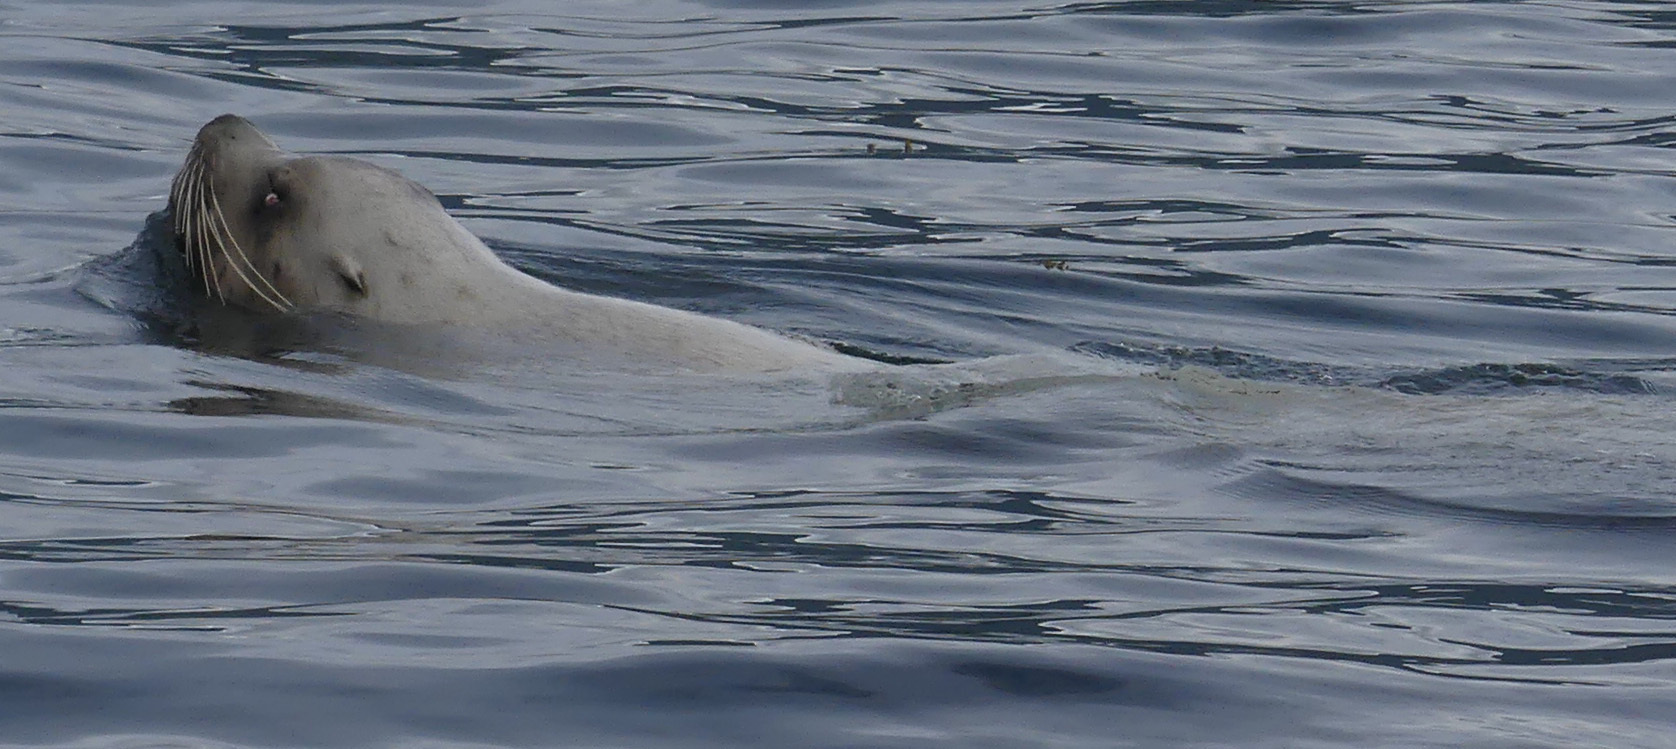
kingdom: Animalia
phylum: Chordata
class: Mammalia
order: Carnivora
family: Otariidae
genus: Eumetopias
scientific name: Eumetopias jubatus
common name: Steller sea lion
